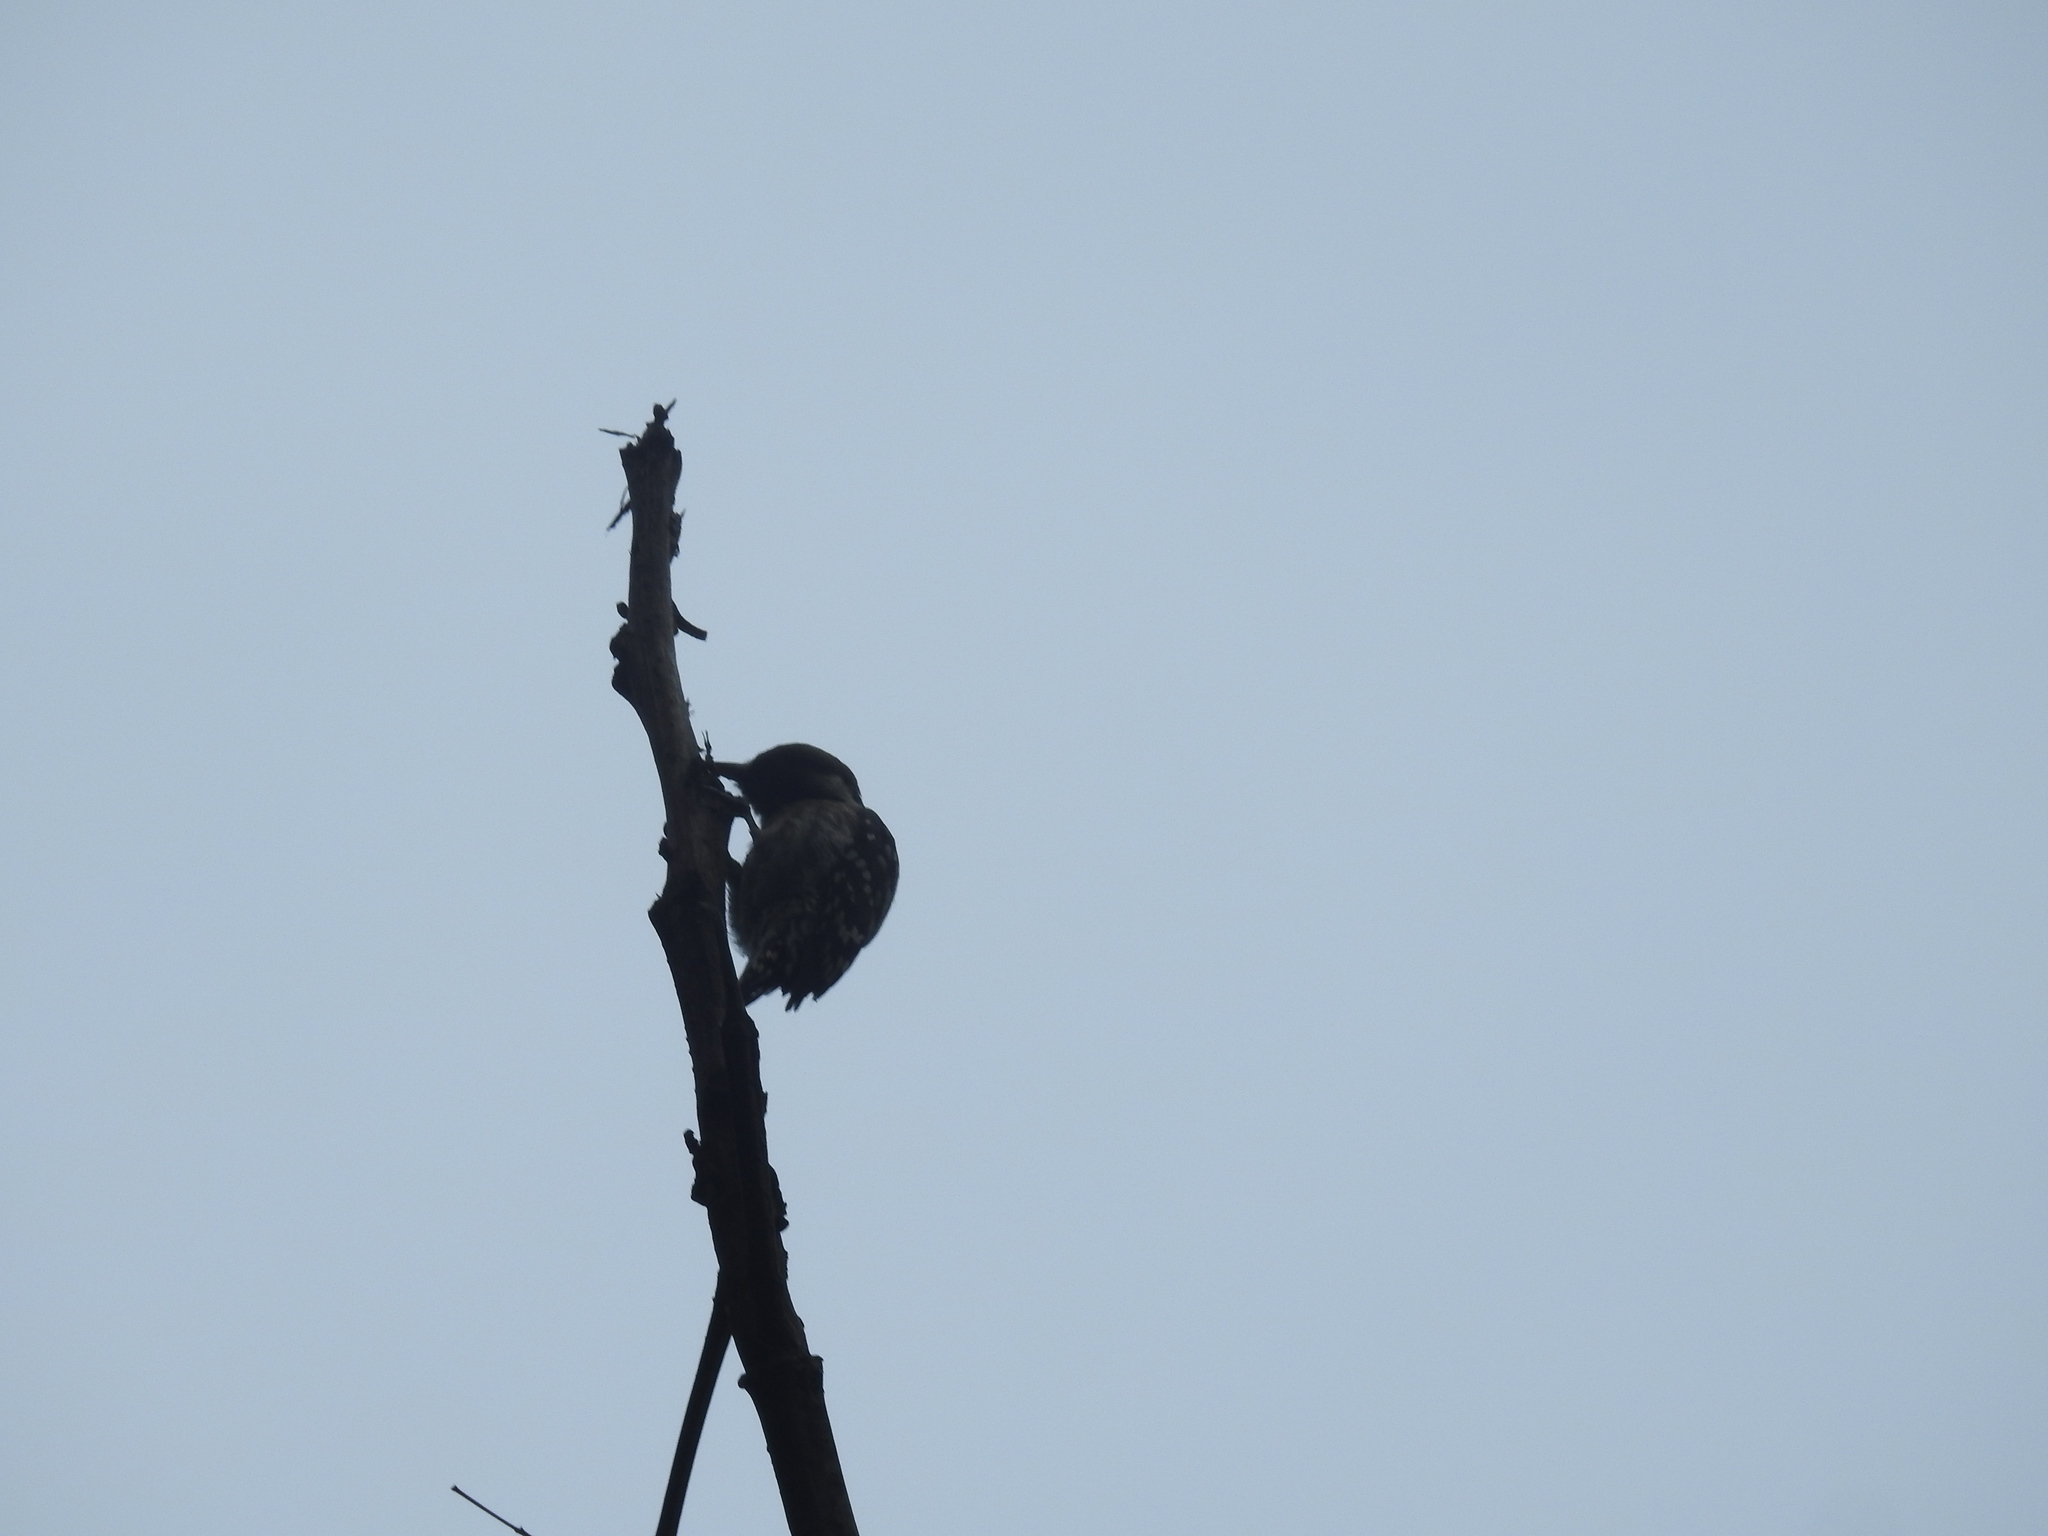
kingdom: Animalia
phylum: Chordata
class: Aves
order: Piciformes
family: Picidae
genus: Yungipicus
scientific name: Yungipicus nanus
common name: Brown-capped pygmy woodpecker
